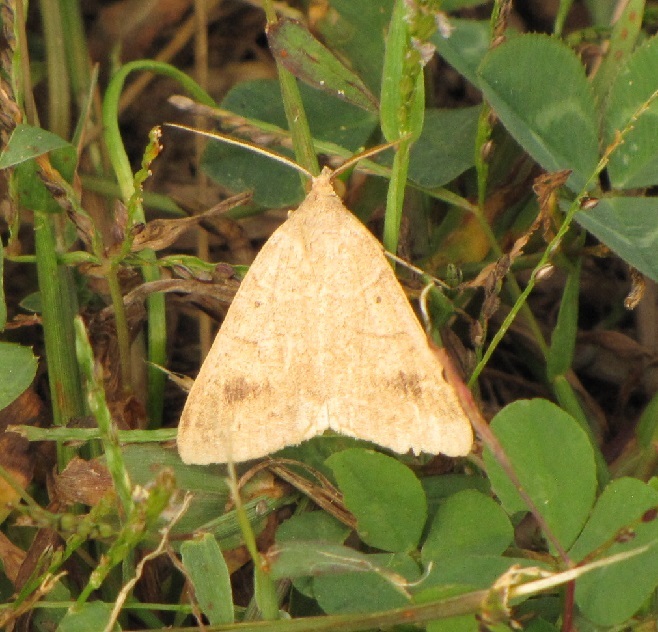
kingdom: Animalia
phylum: Arthropoda
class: Insecta
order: Lepidoptera
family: Erebidae
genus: Caenurgia
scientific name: Caenurgia chloropha
